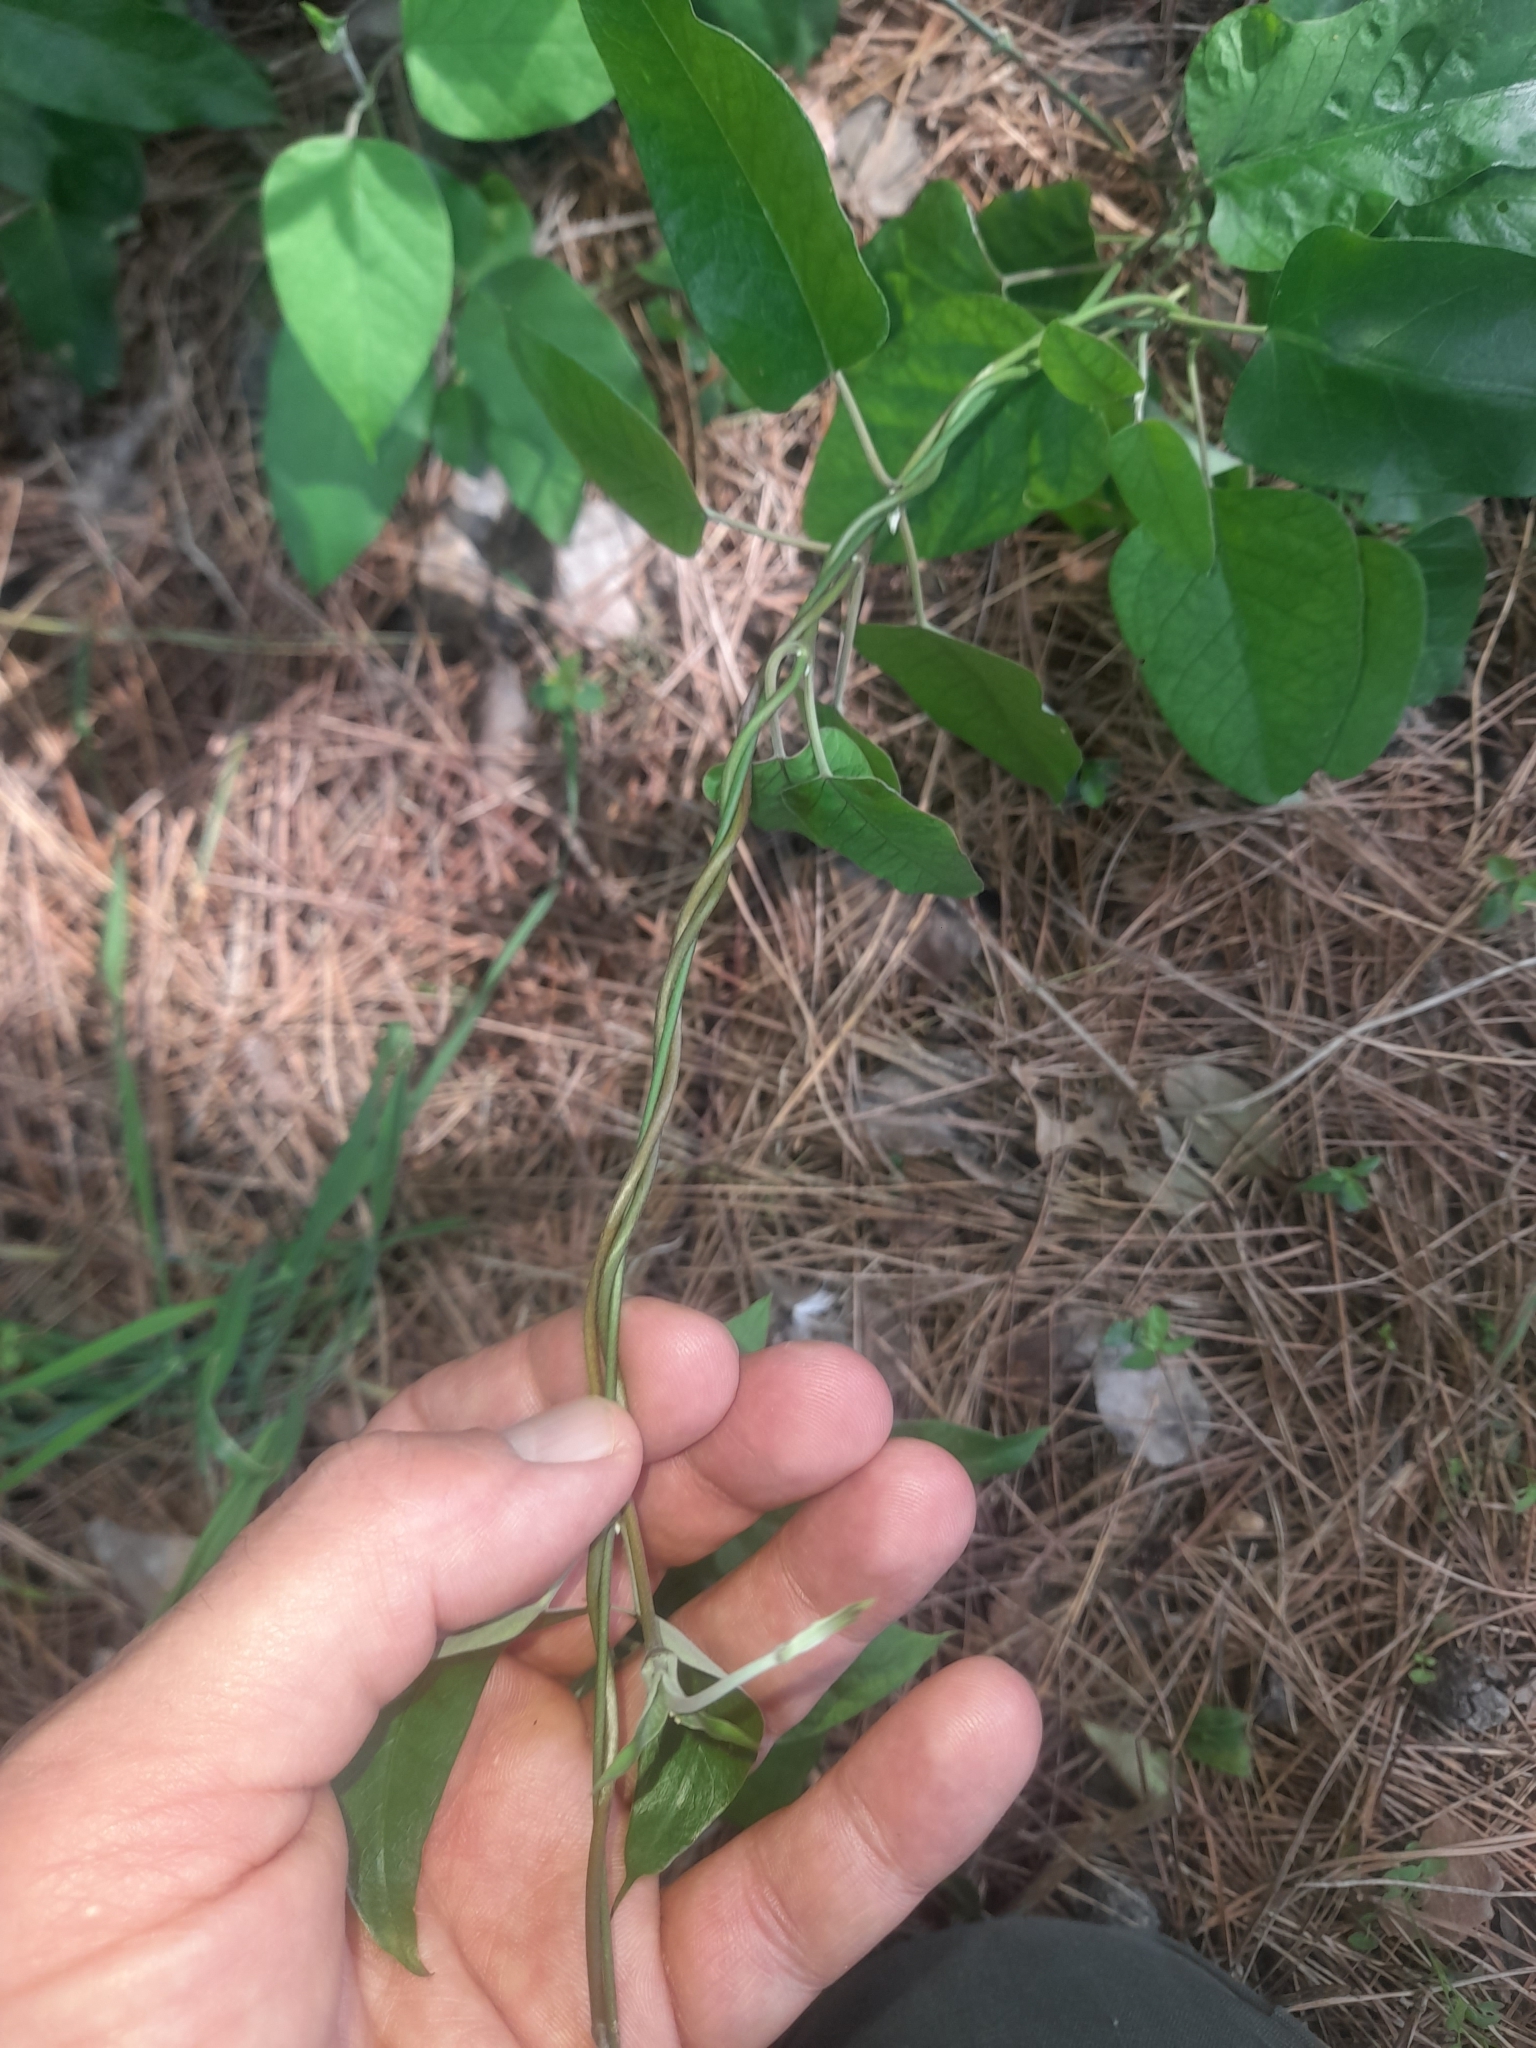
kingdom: Plantae
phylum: Tracheophyta
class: Magnoliopsida
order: Gentianales
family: Apocynaceae
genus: Araujia
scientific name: Araujia sericifera
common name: White bladderflower
